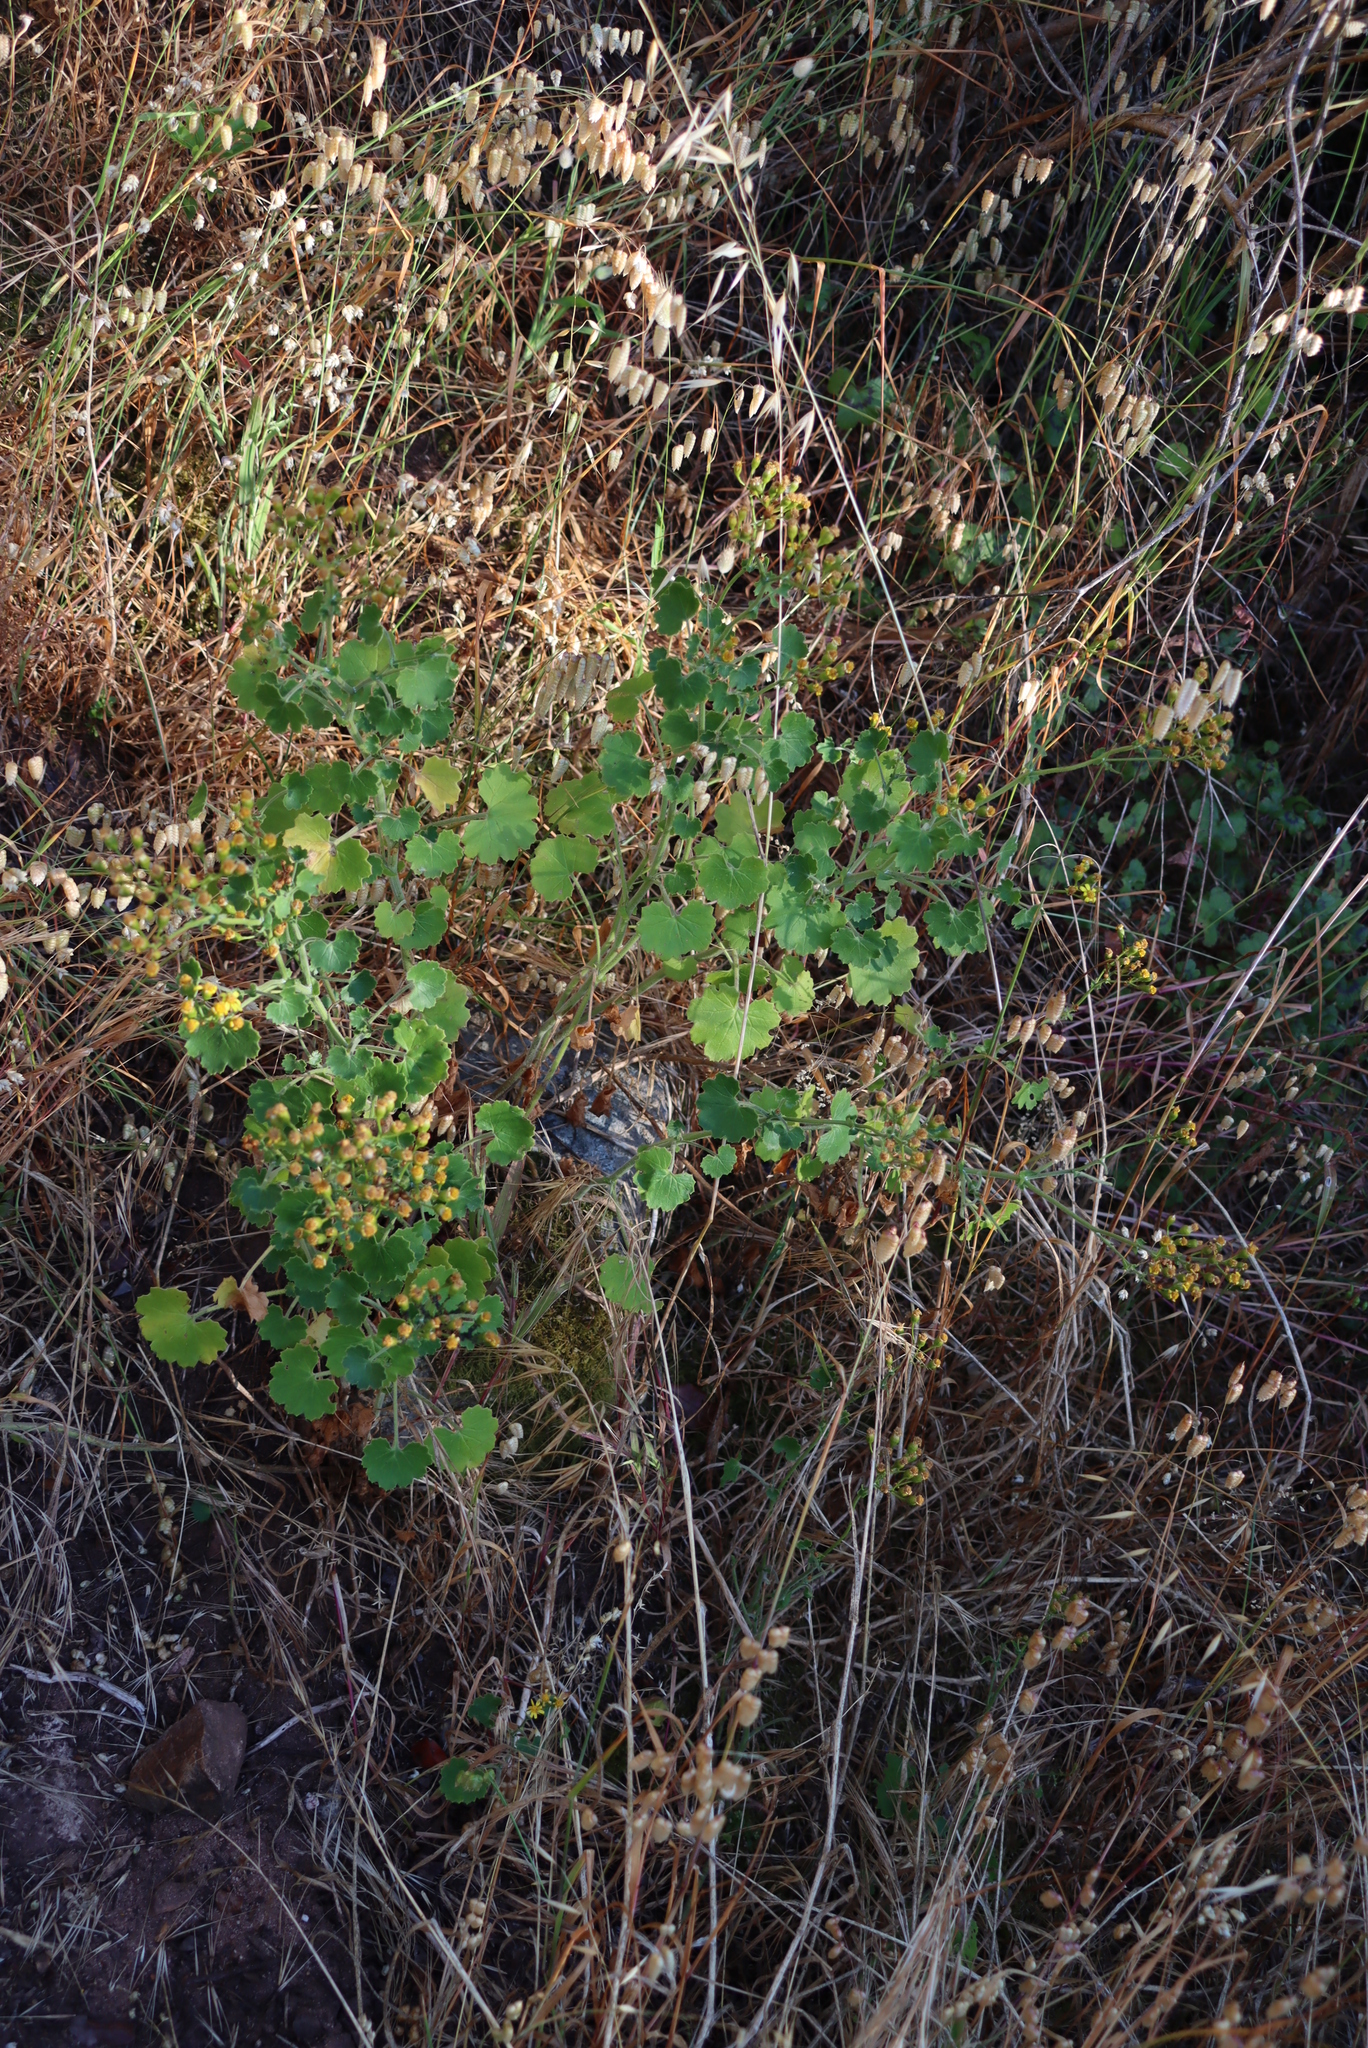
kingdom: Plantae
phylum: Tracheophyta
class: Magnoliopsida
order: Asterales
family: Asteraceae
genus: Cineraria
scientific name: Cineraria geifolia
